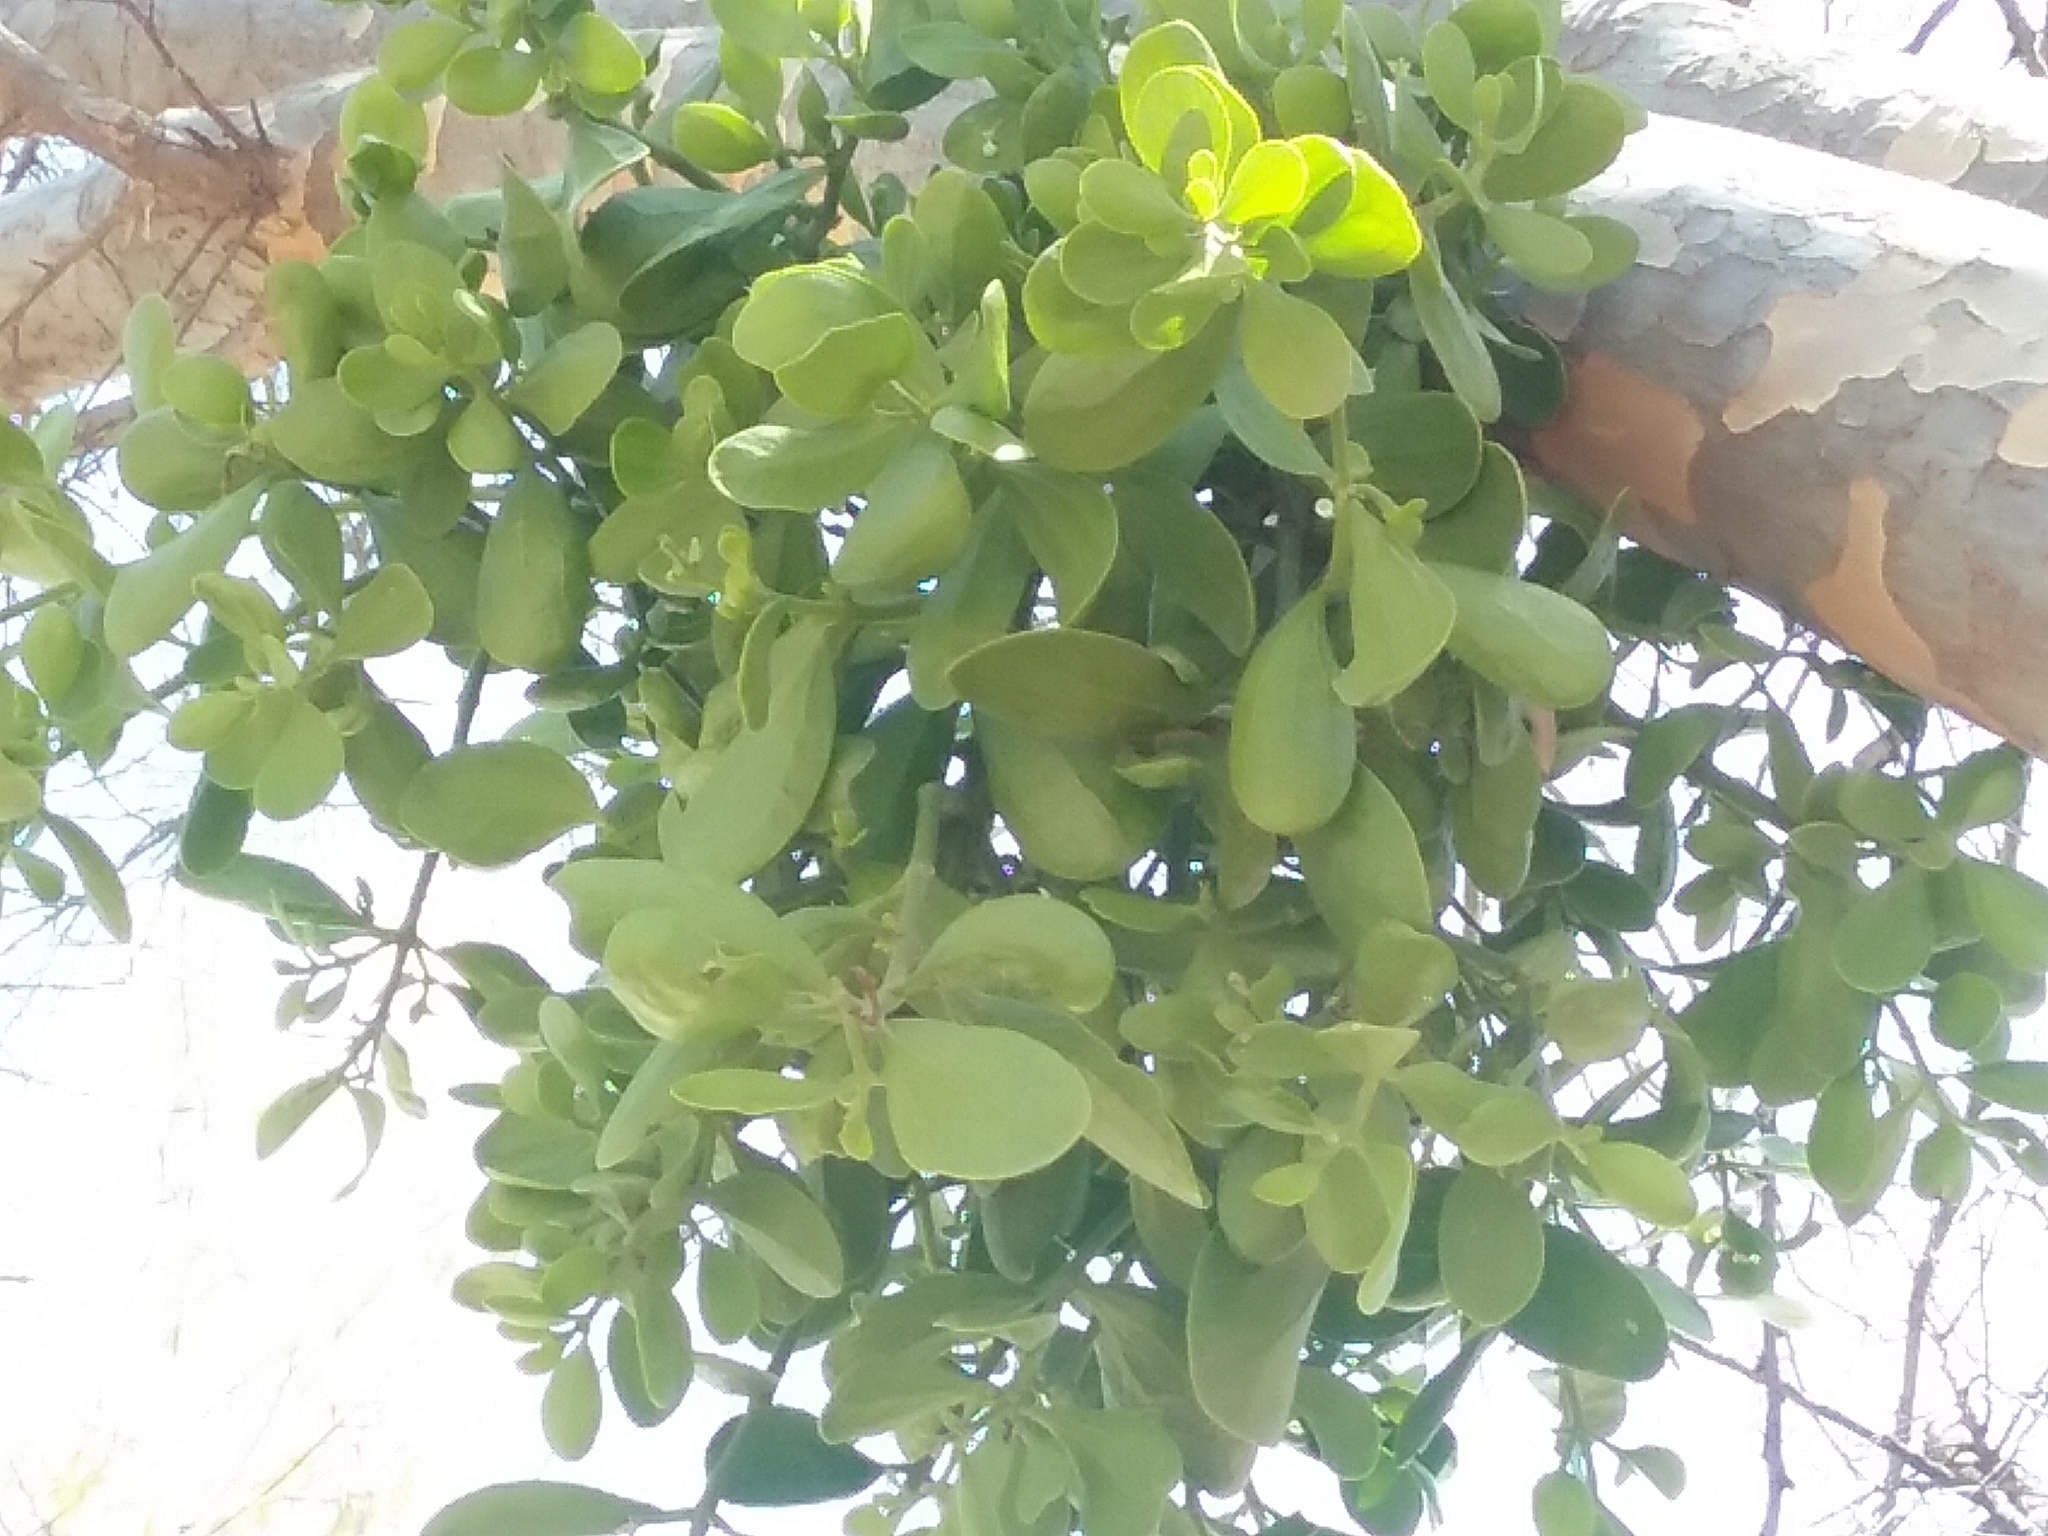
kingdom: Plantae
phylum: Tracheophyta
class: Magnoliopsida
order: Santalales
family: Viscaceae
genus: Phoradendron
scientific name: Phoradendron leucarpum
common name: Pacific mistletoe
